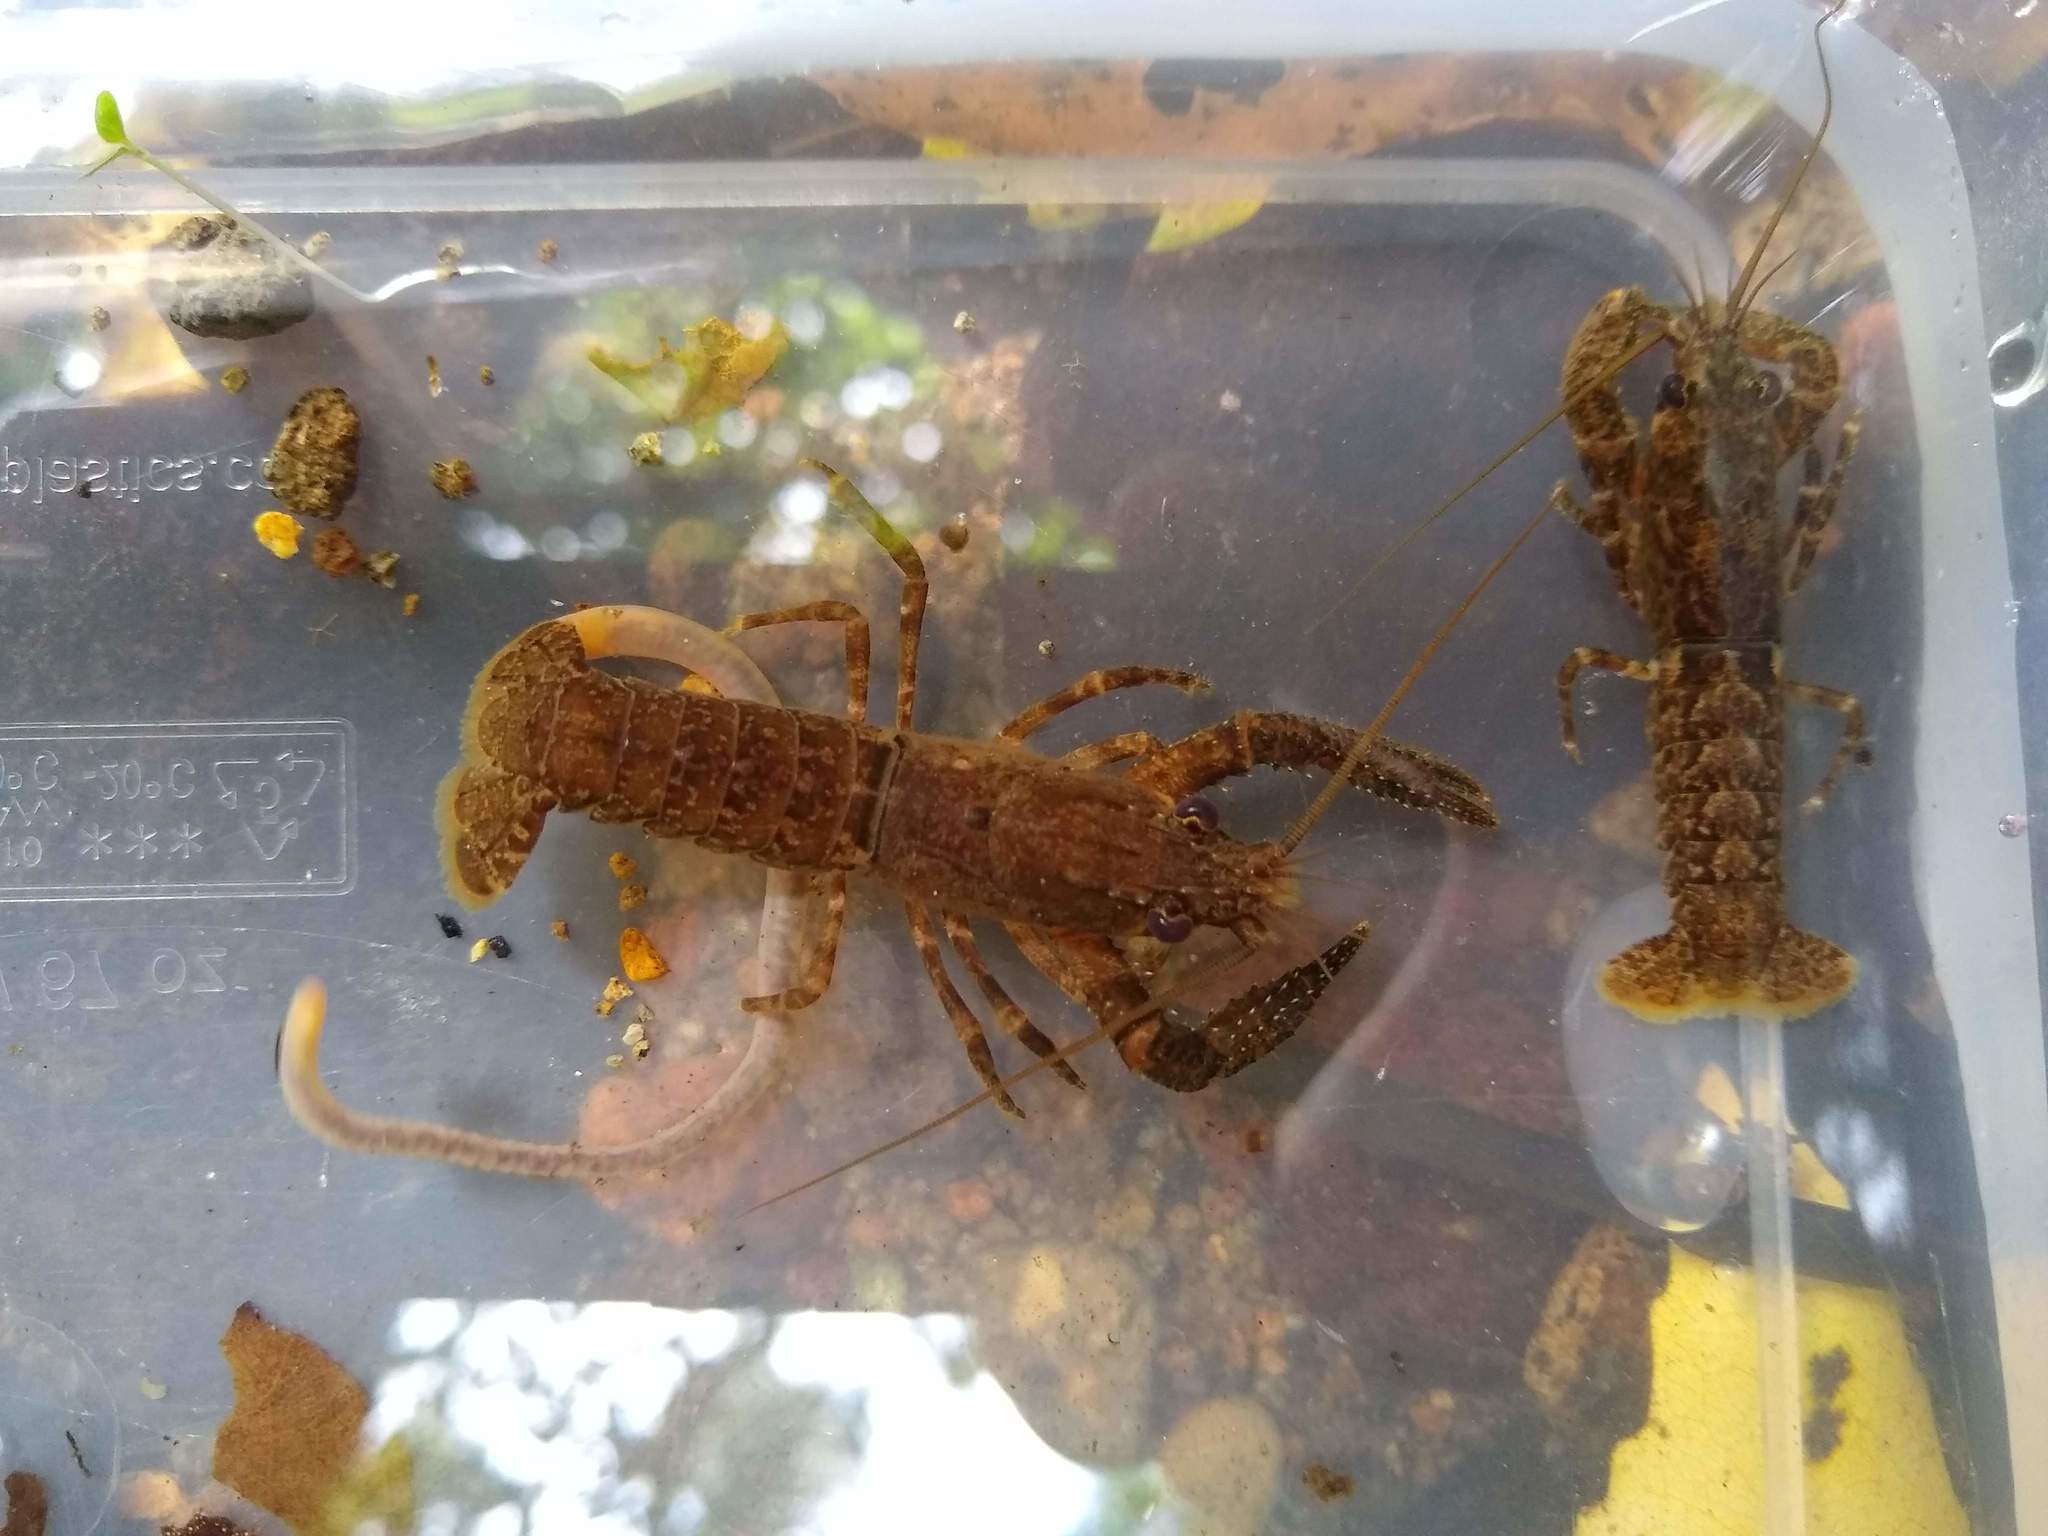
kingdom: Animalia
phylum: Arthropoda
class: Malacostraca
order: Decapoda
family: Parastacidae
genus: Paranephrops
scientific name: Paranephrops planifrons
